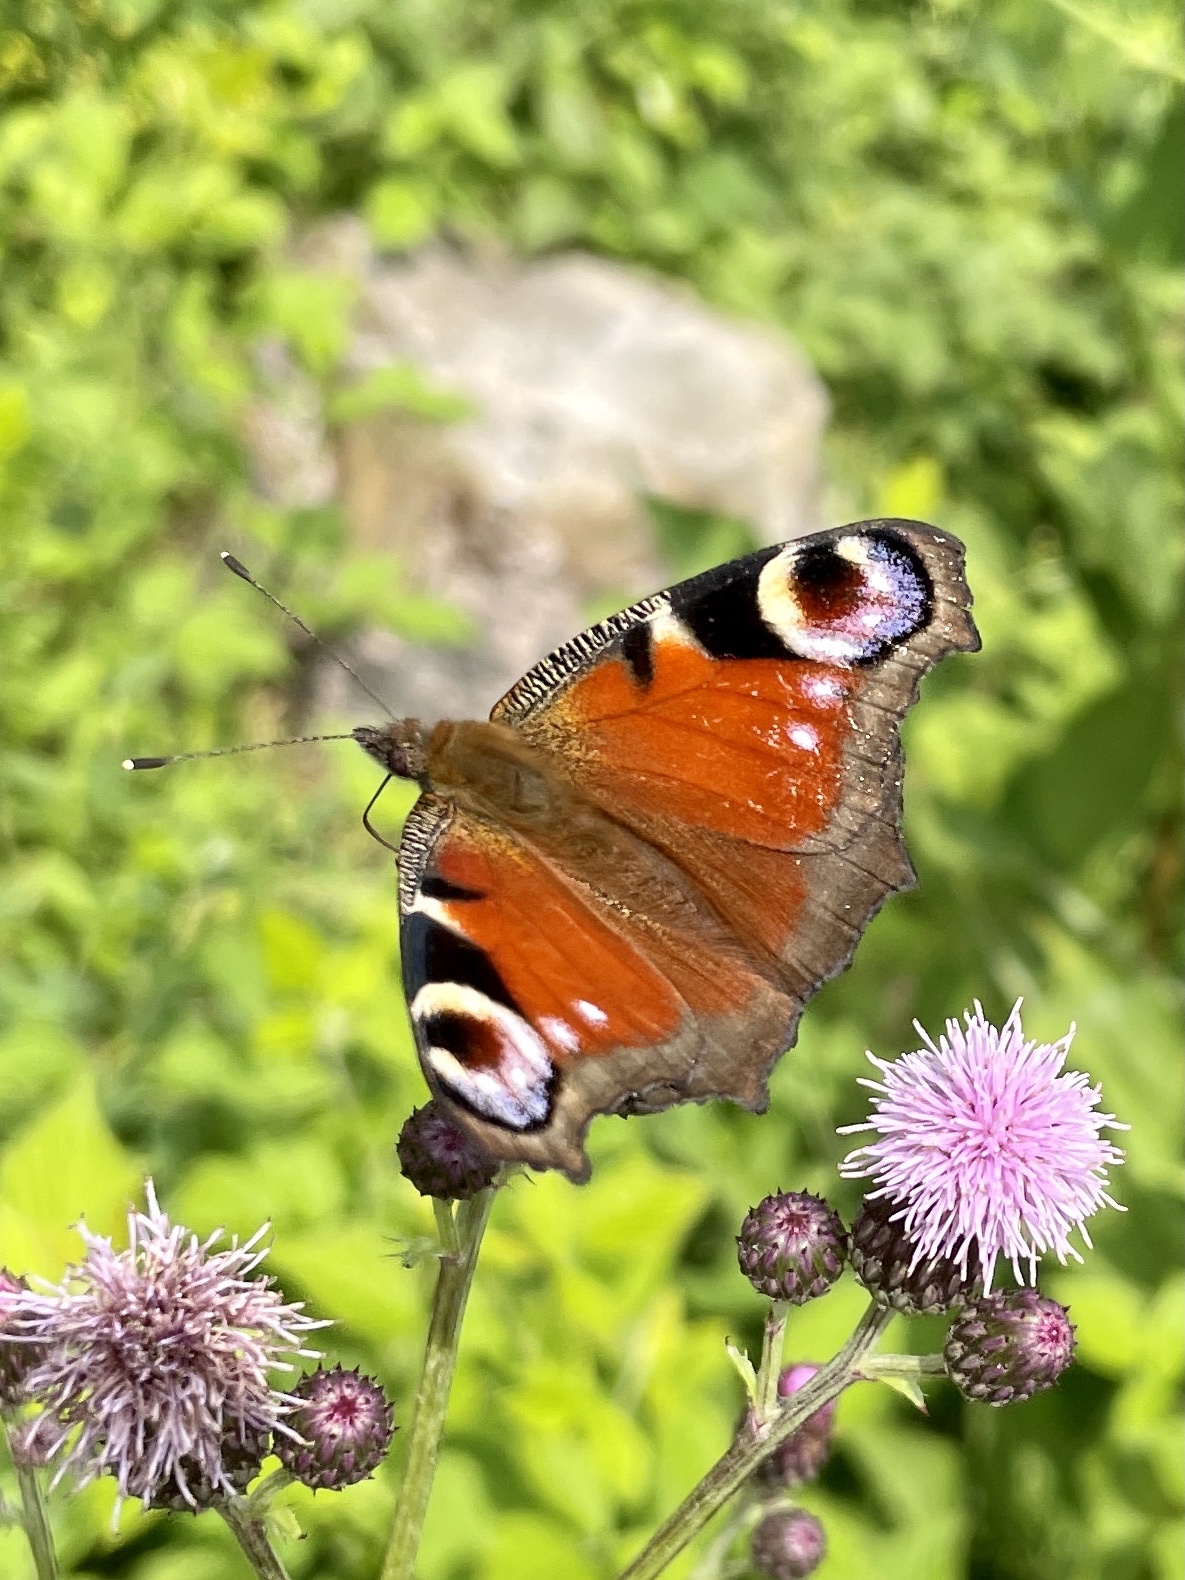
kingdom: Animalia
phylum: Arthropoda
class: Insecta
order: Lepidoptera
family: Nymphalidae
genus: Aglais
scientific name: Aglais io
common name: Peacock
